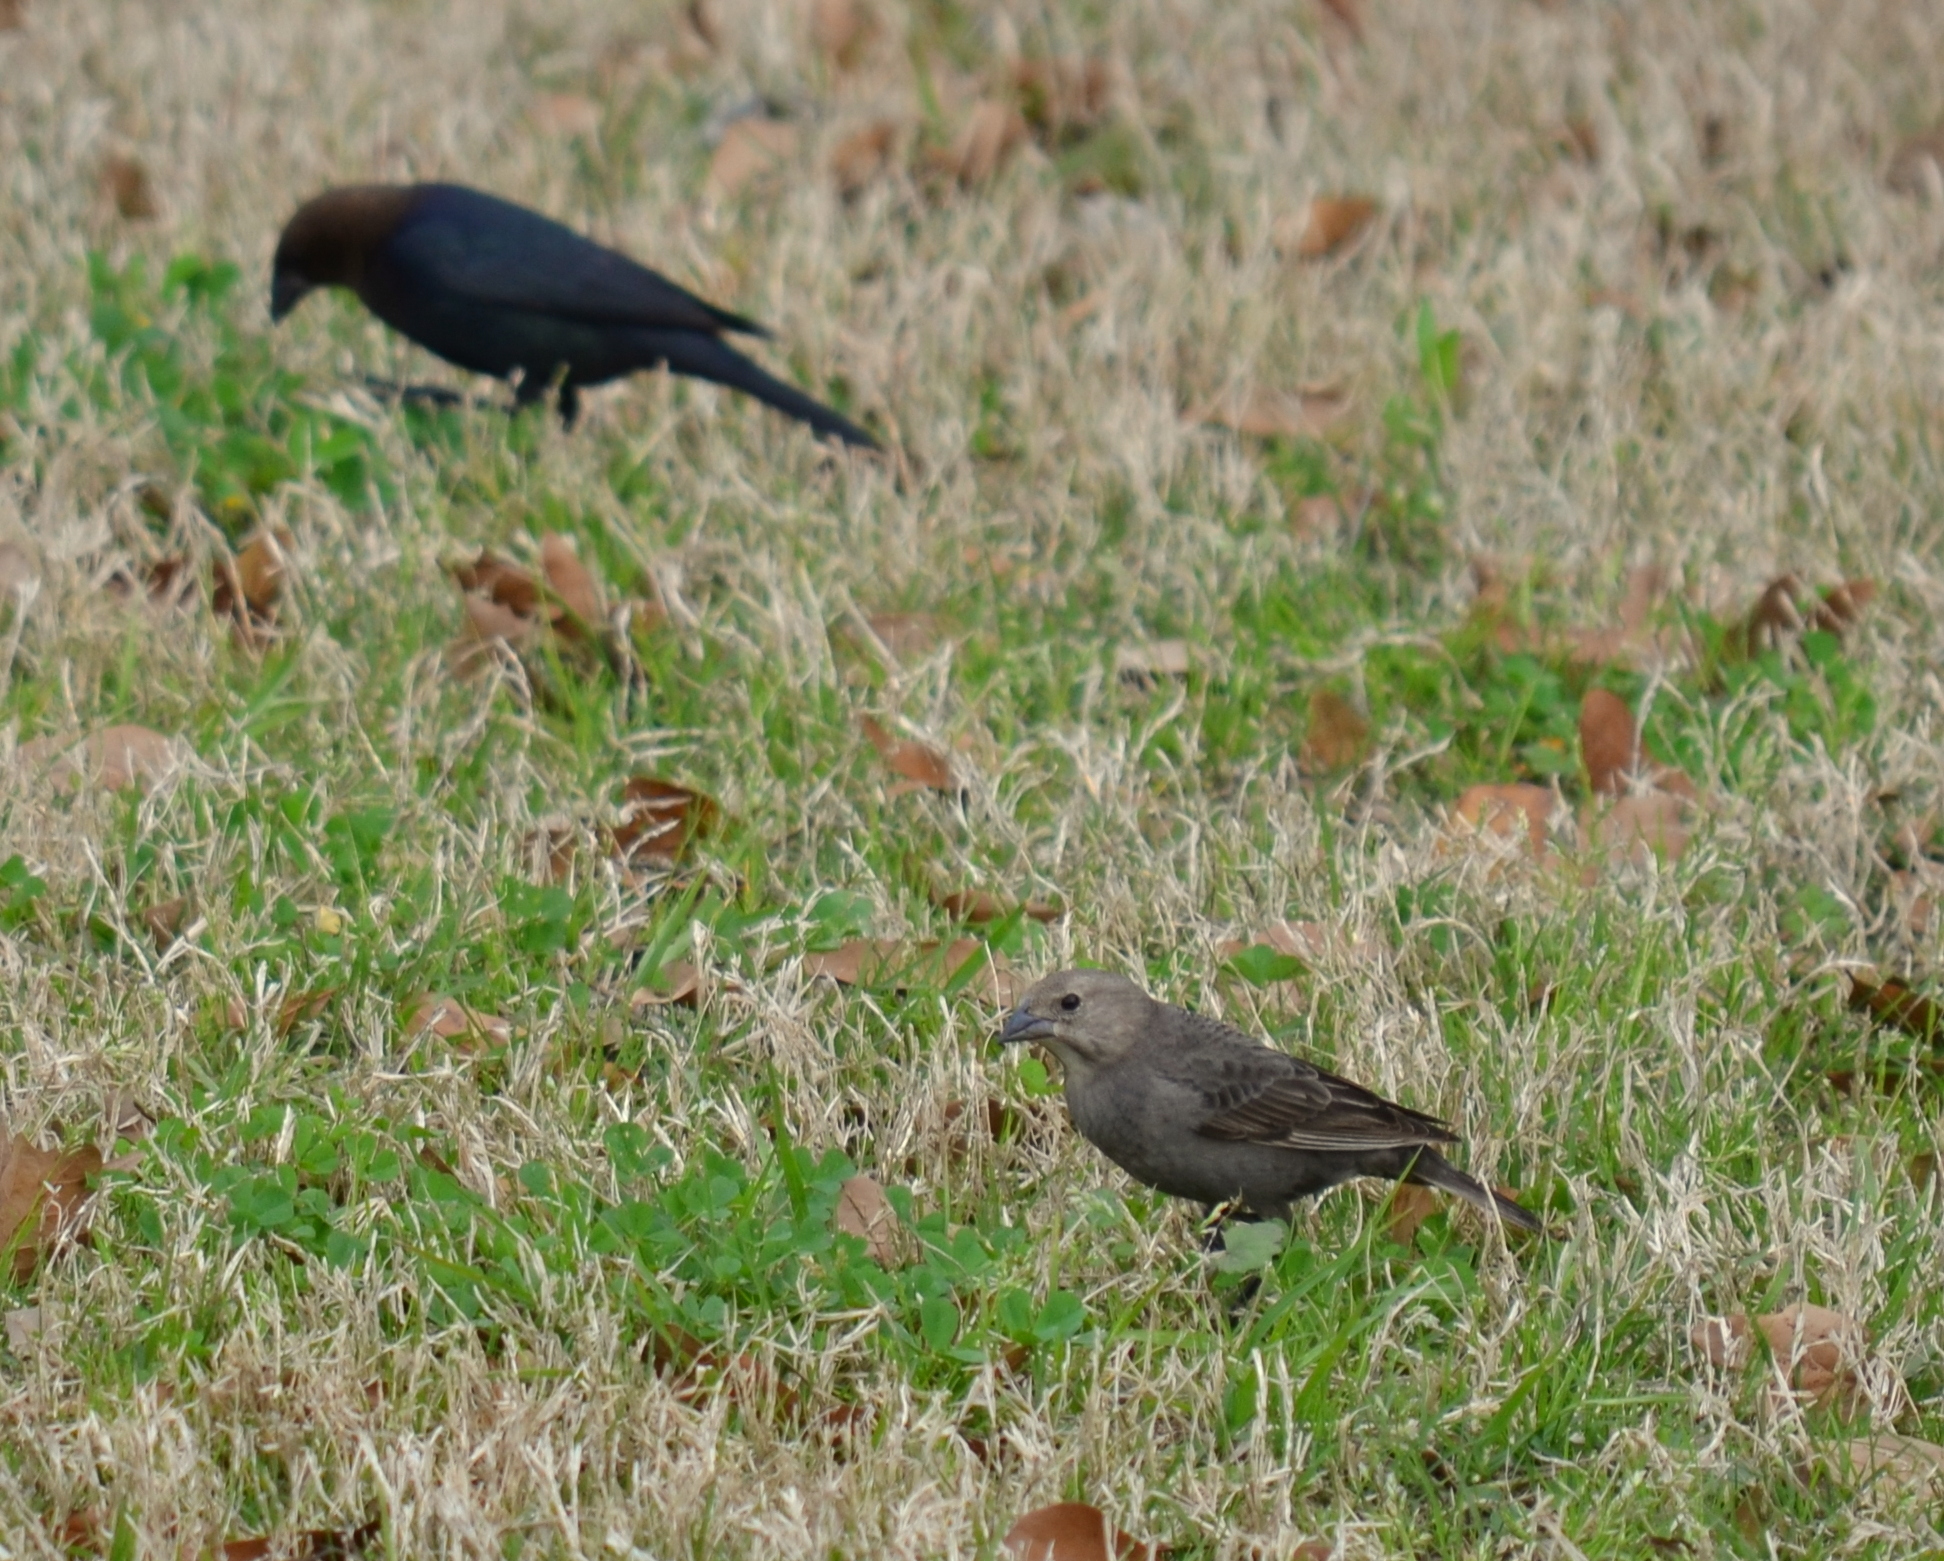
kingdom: Animalia
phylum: Chordata
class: Aves
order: Passeriformes
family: Icteridae
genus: Molothrus
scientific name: Molothrus ater
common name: Brown-headed cowbird
